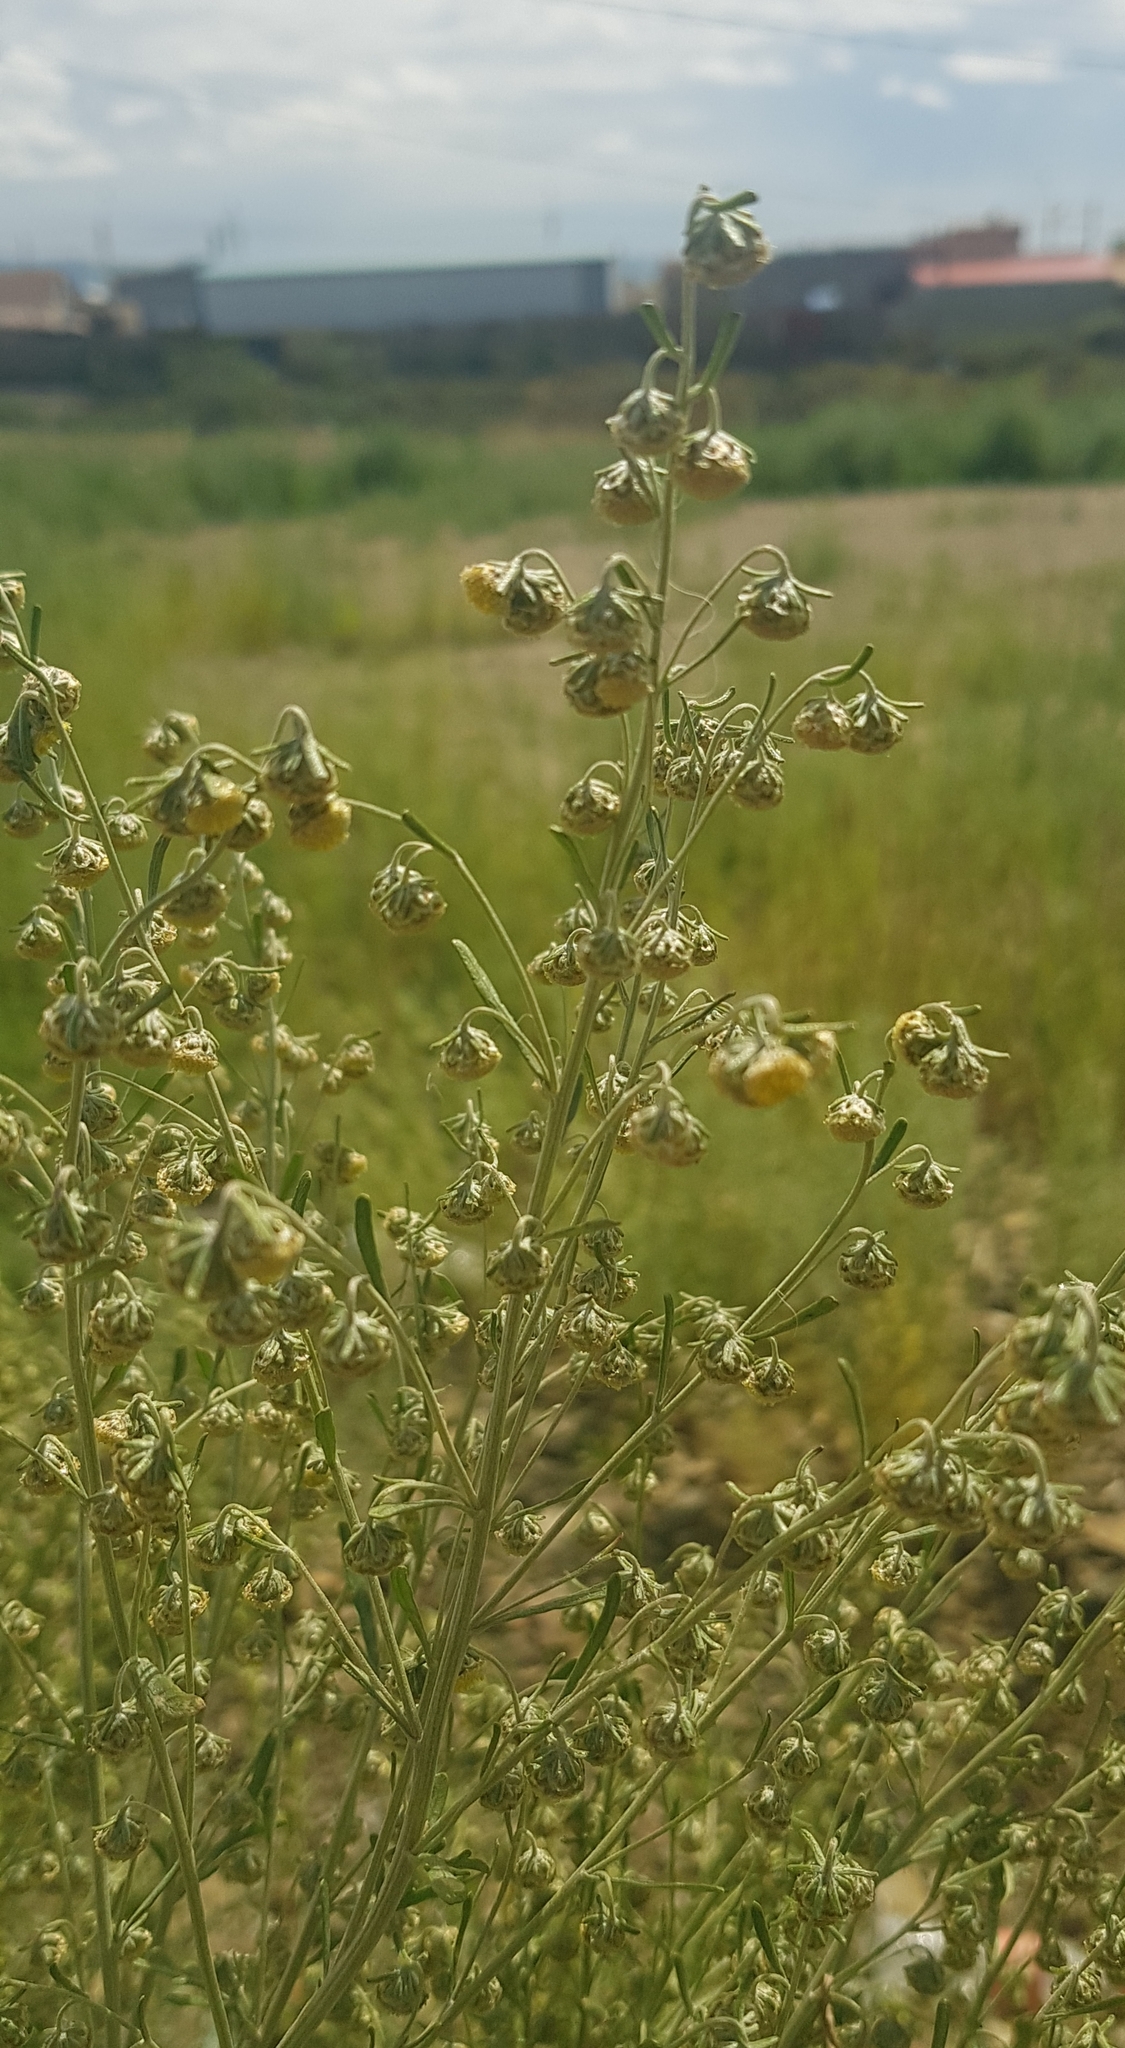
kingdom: Plantae
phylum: Tracheophyta
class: Magnoliopsida
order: Asterales
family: Asteraceae
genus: Artemisia
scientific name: Artemisia macrocephala
